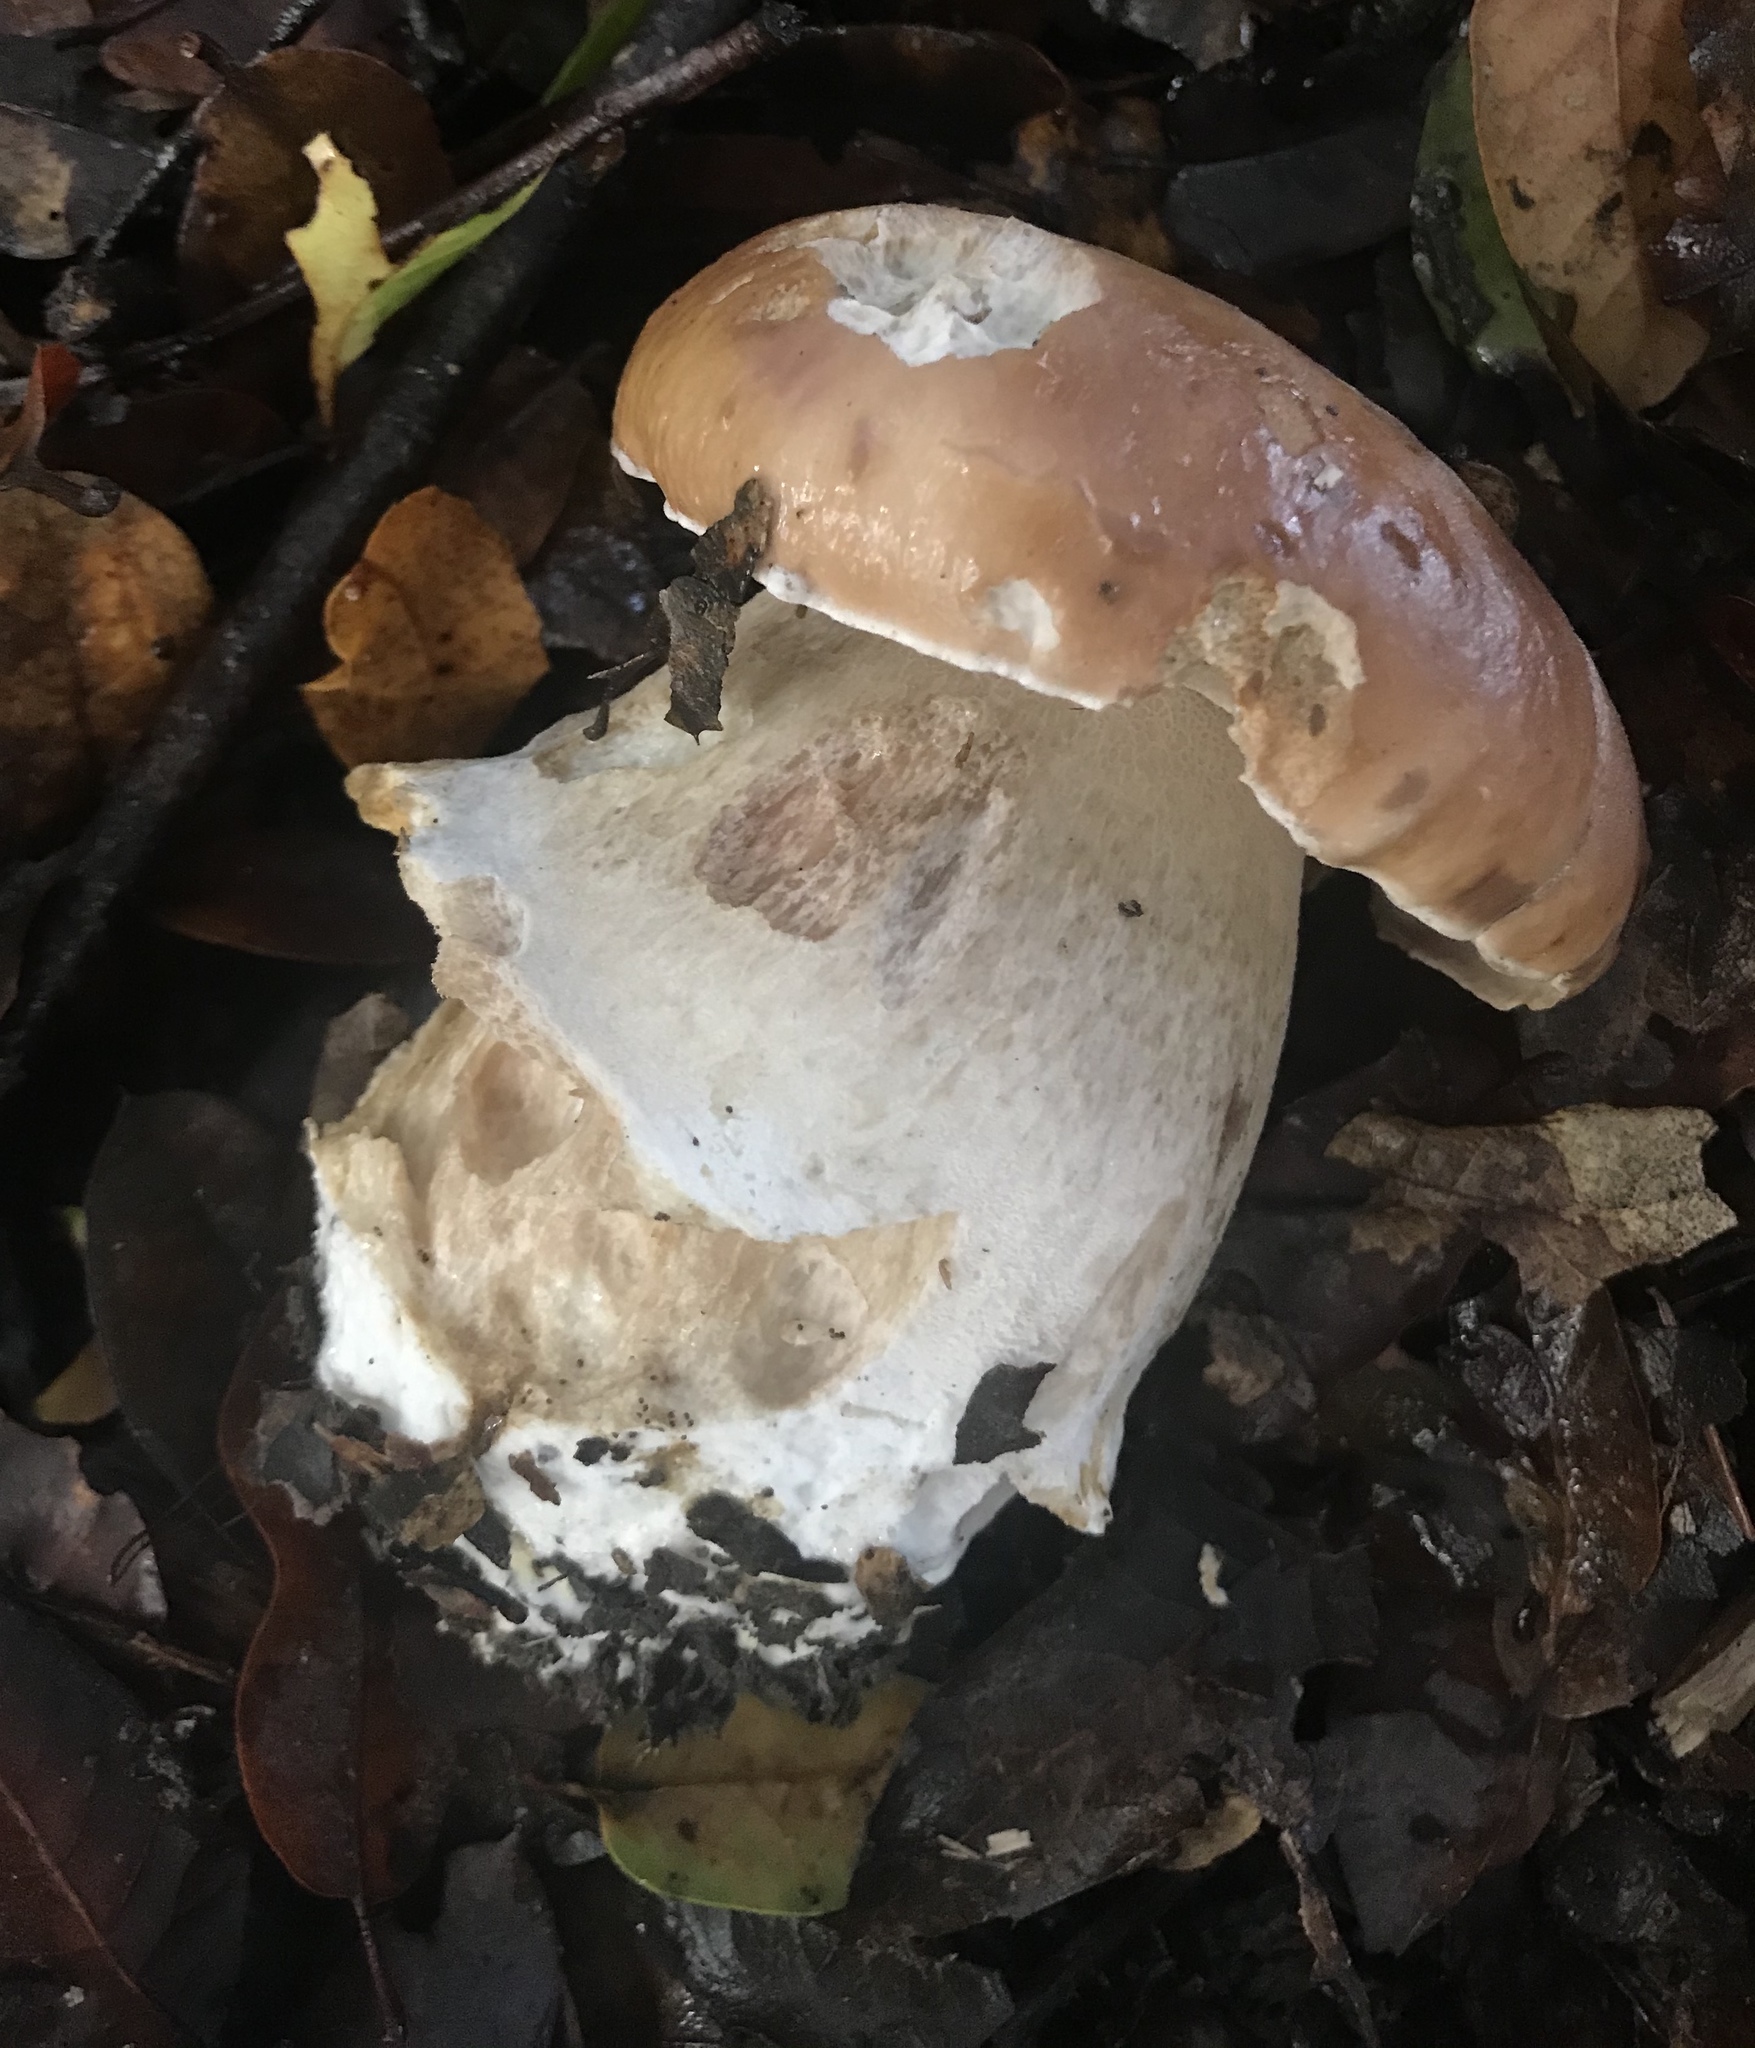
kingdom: Fungi
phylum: Basidiomycota
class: Agaricomycetes
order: Boletales
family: Boletaceae
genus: Boletus
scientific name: Boletus edulis
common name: Cep
